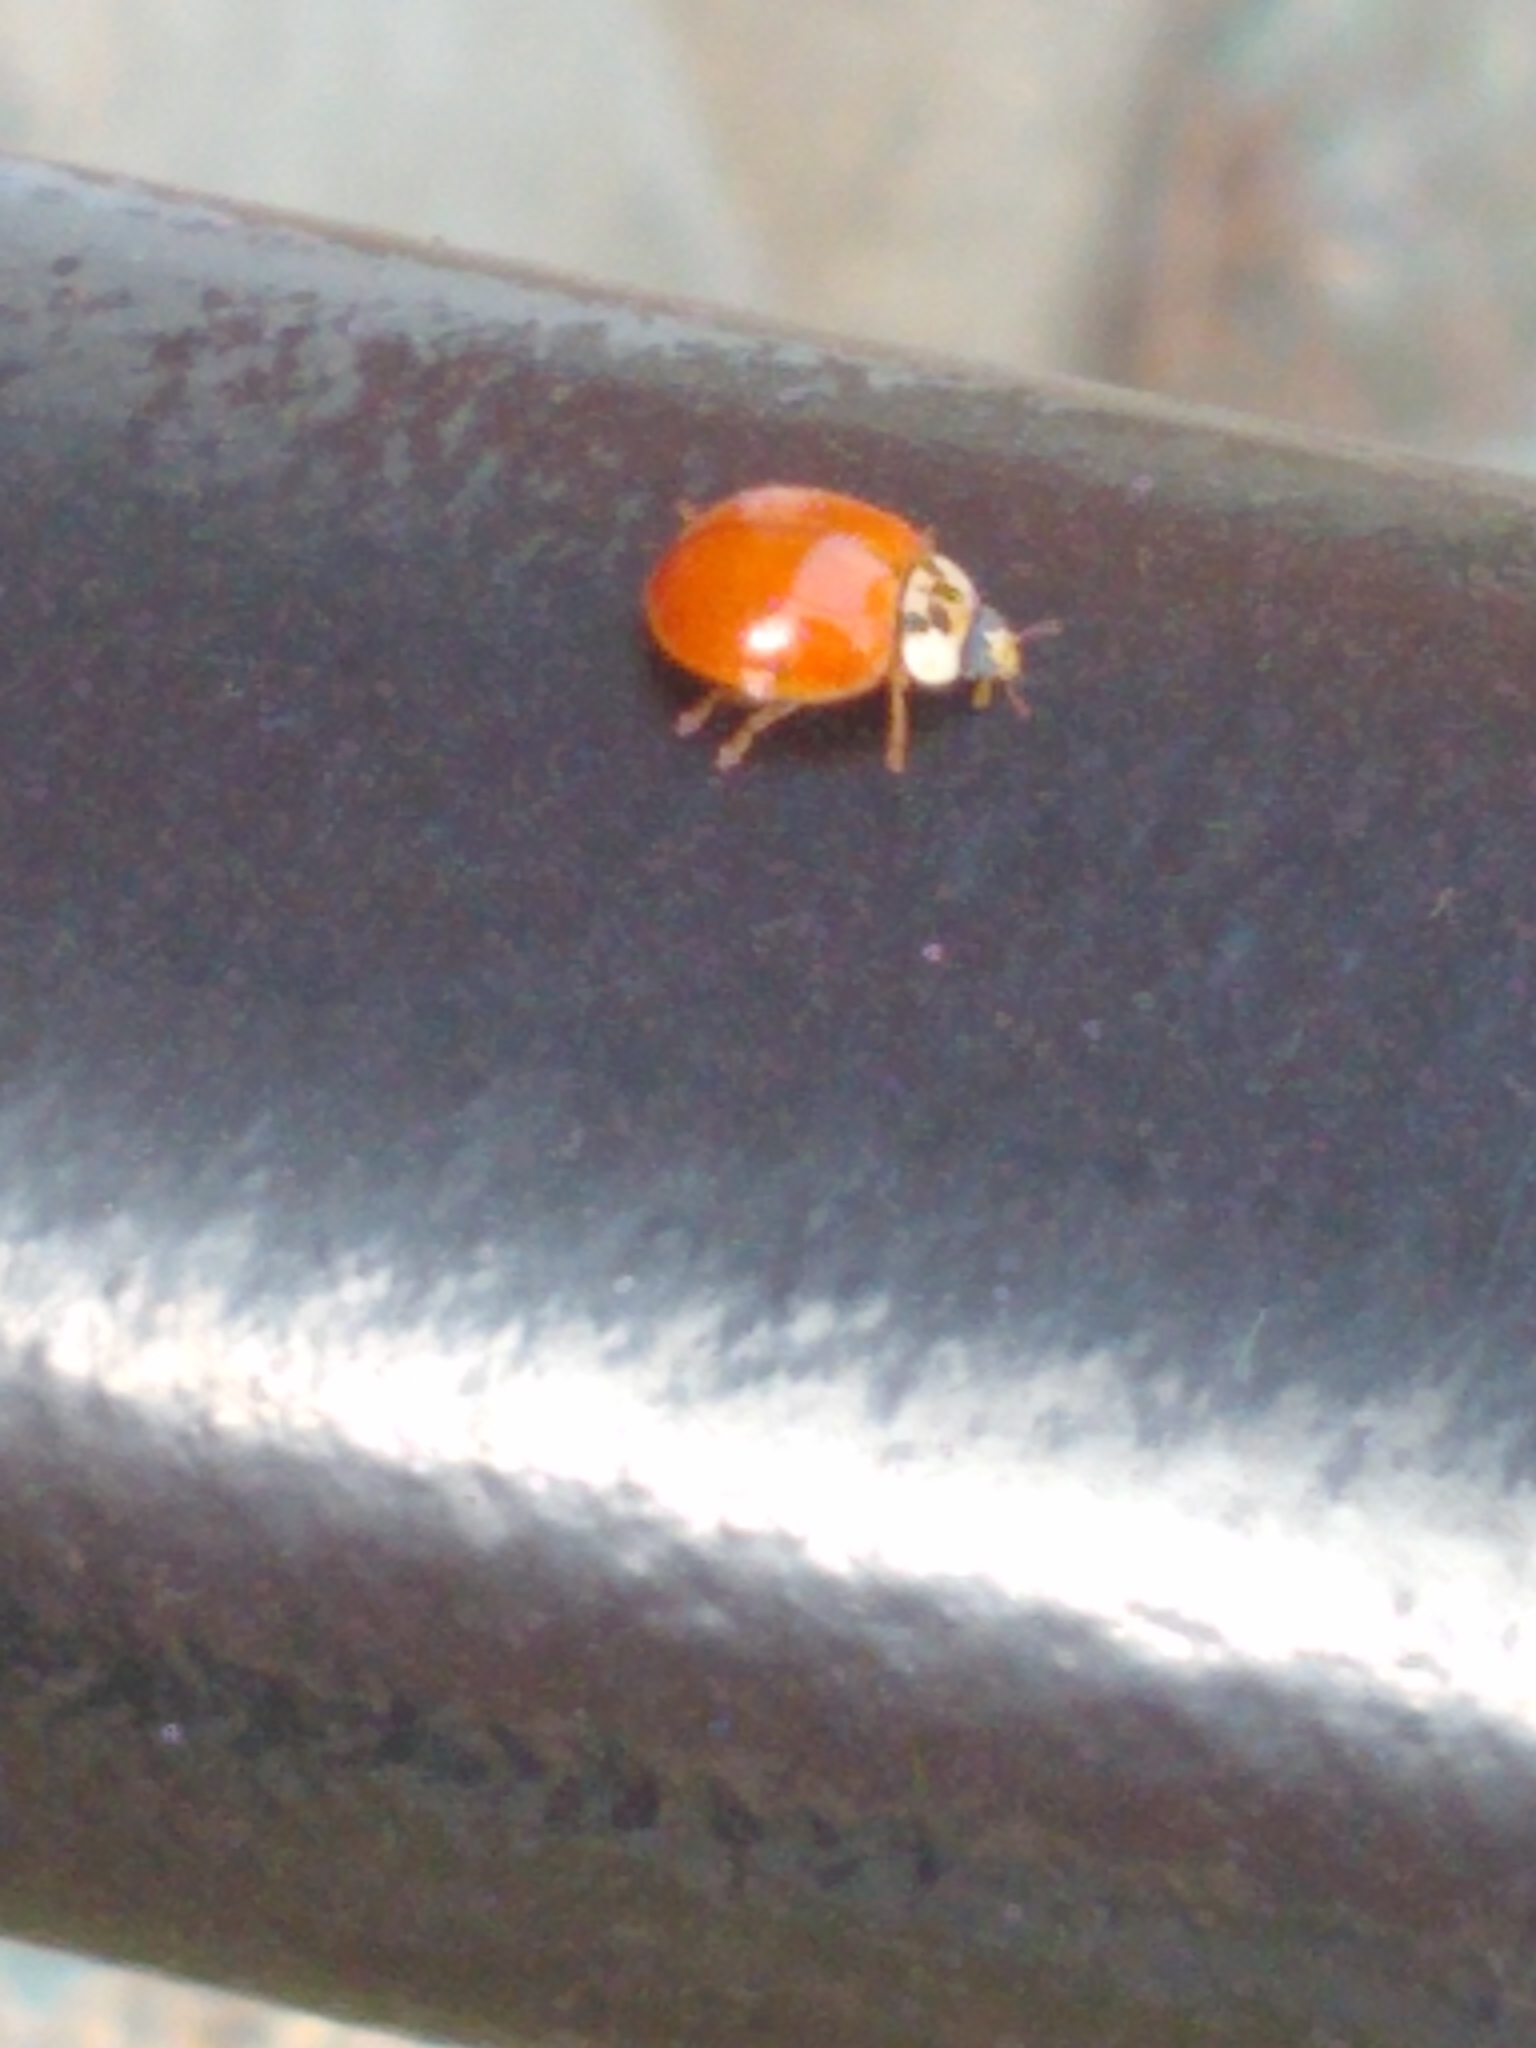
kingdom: Animalia
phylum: Arthropoda
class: Insecta
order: Coleoptera
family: Coccinellidae
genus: Harmonia
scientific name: Harmonia axyridis
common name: Harlequin ladybird
